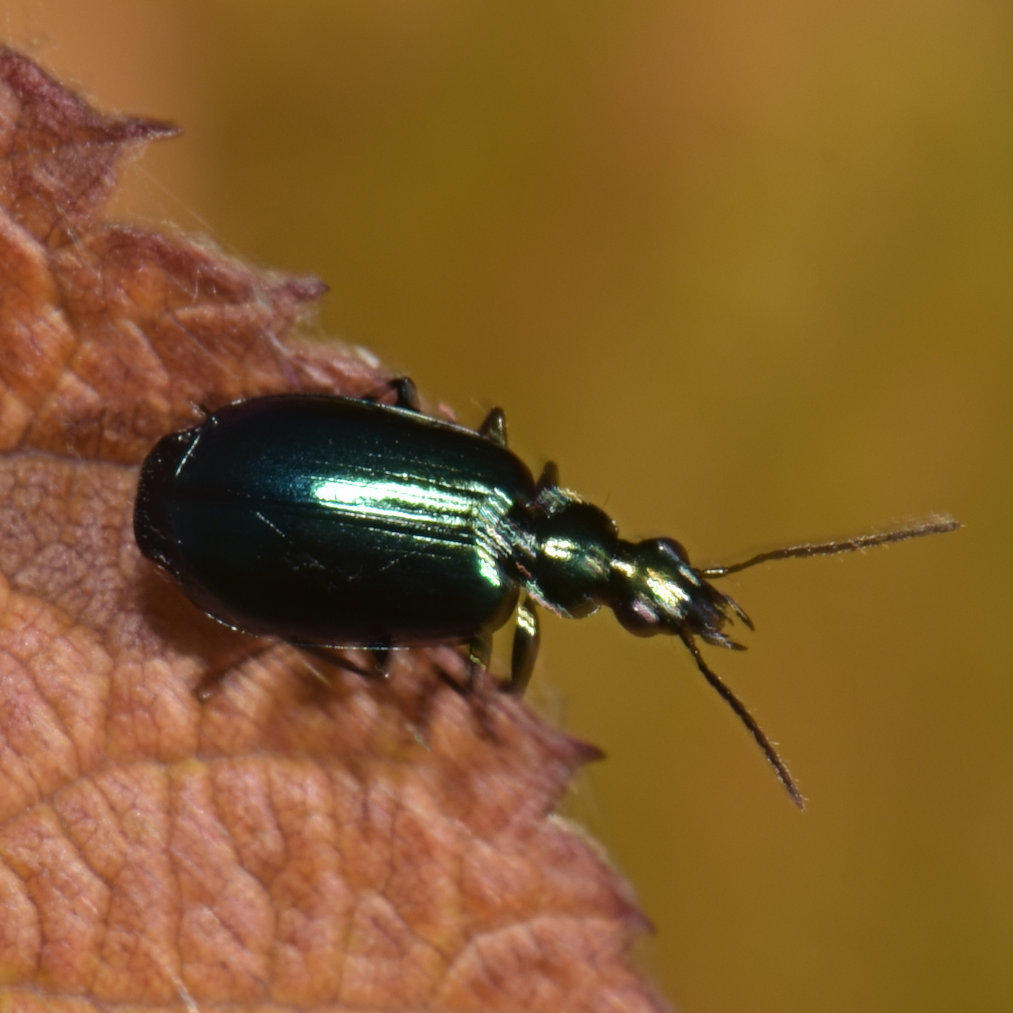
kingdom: Animalia
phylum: Arthropoda
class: Insecta
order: Coleoptera
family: Carabidae
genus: Lebia
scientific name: Lebia viridis
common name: Flower lebia beetle
